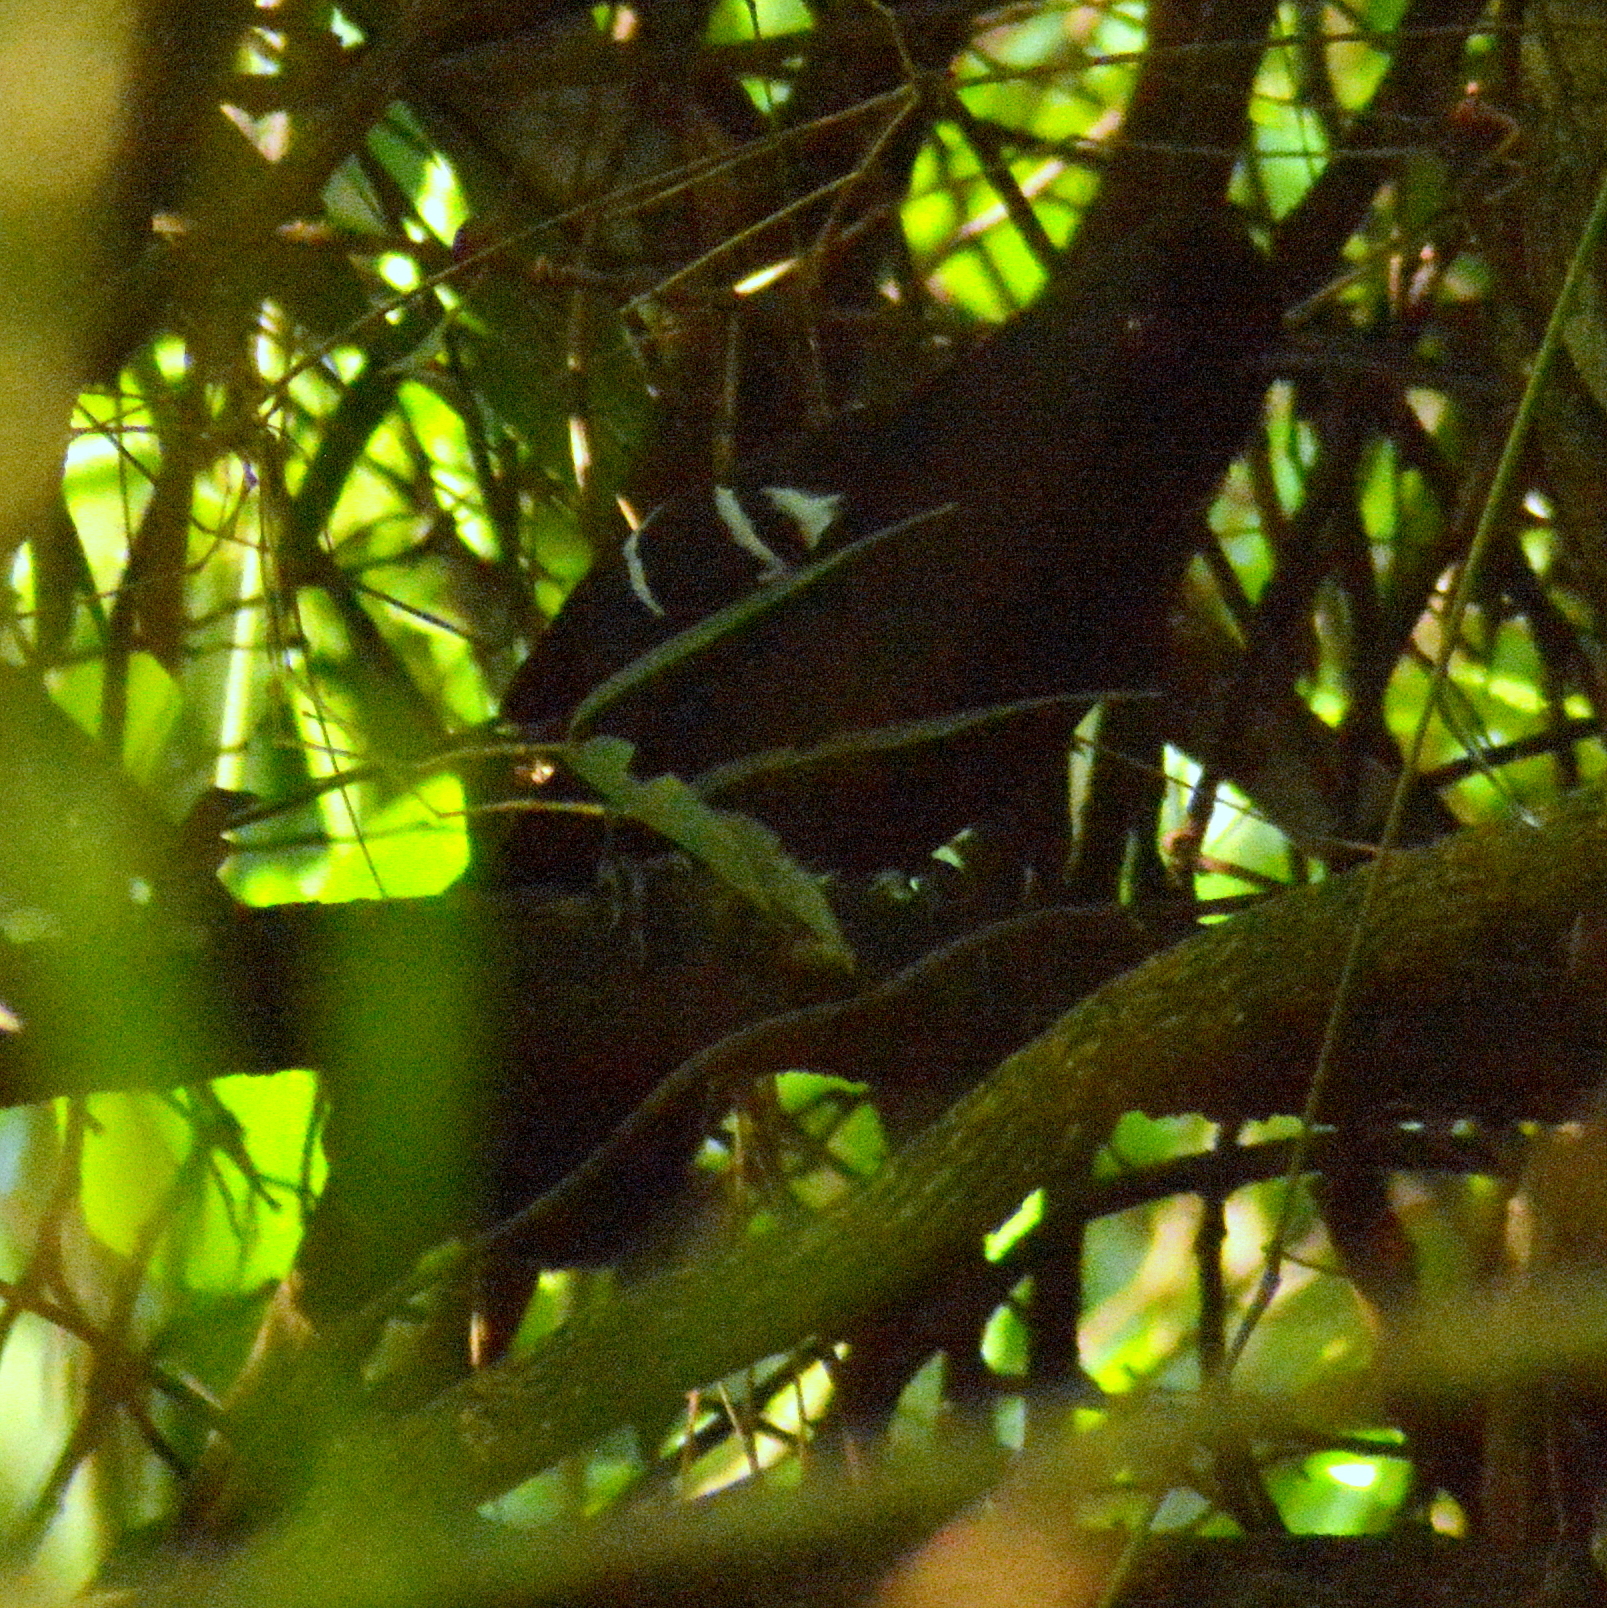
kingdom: Animalia
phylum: Chordata
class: Aves
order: Passeriformes
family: Thamnophilidae
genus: Pyriglena
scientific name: Pyriglena leucoptera
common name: White-shouldered fire-eye
